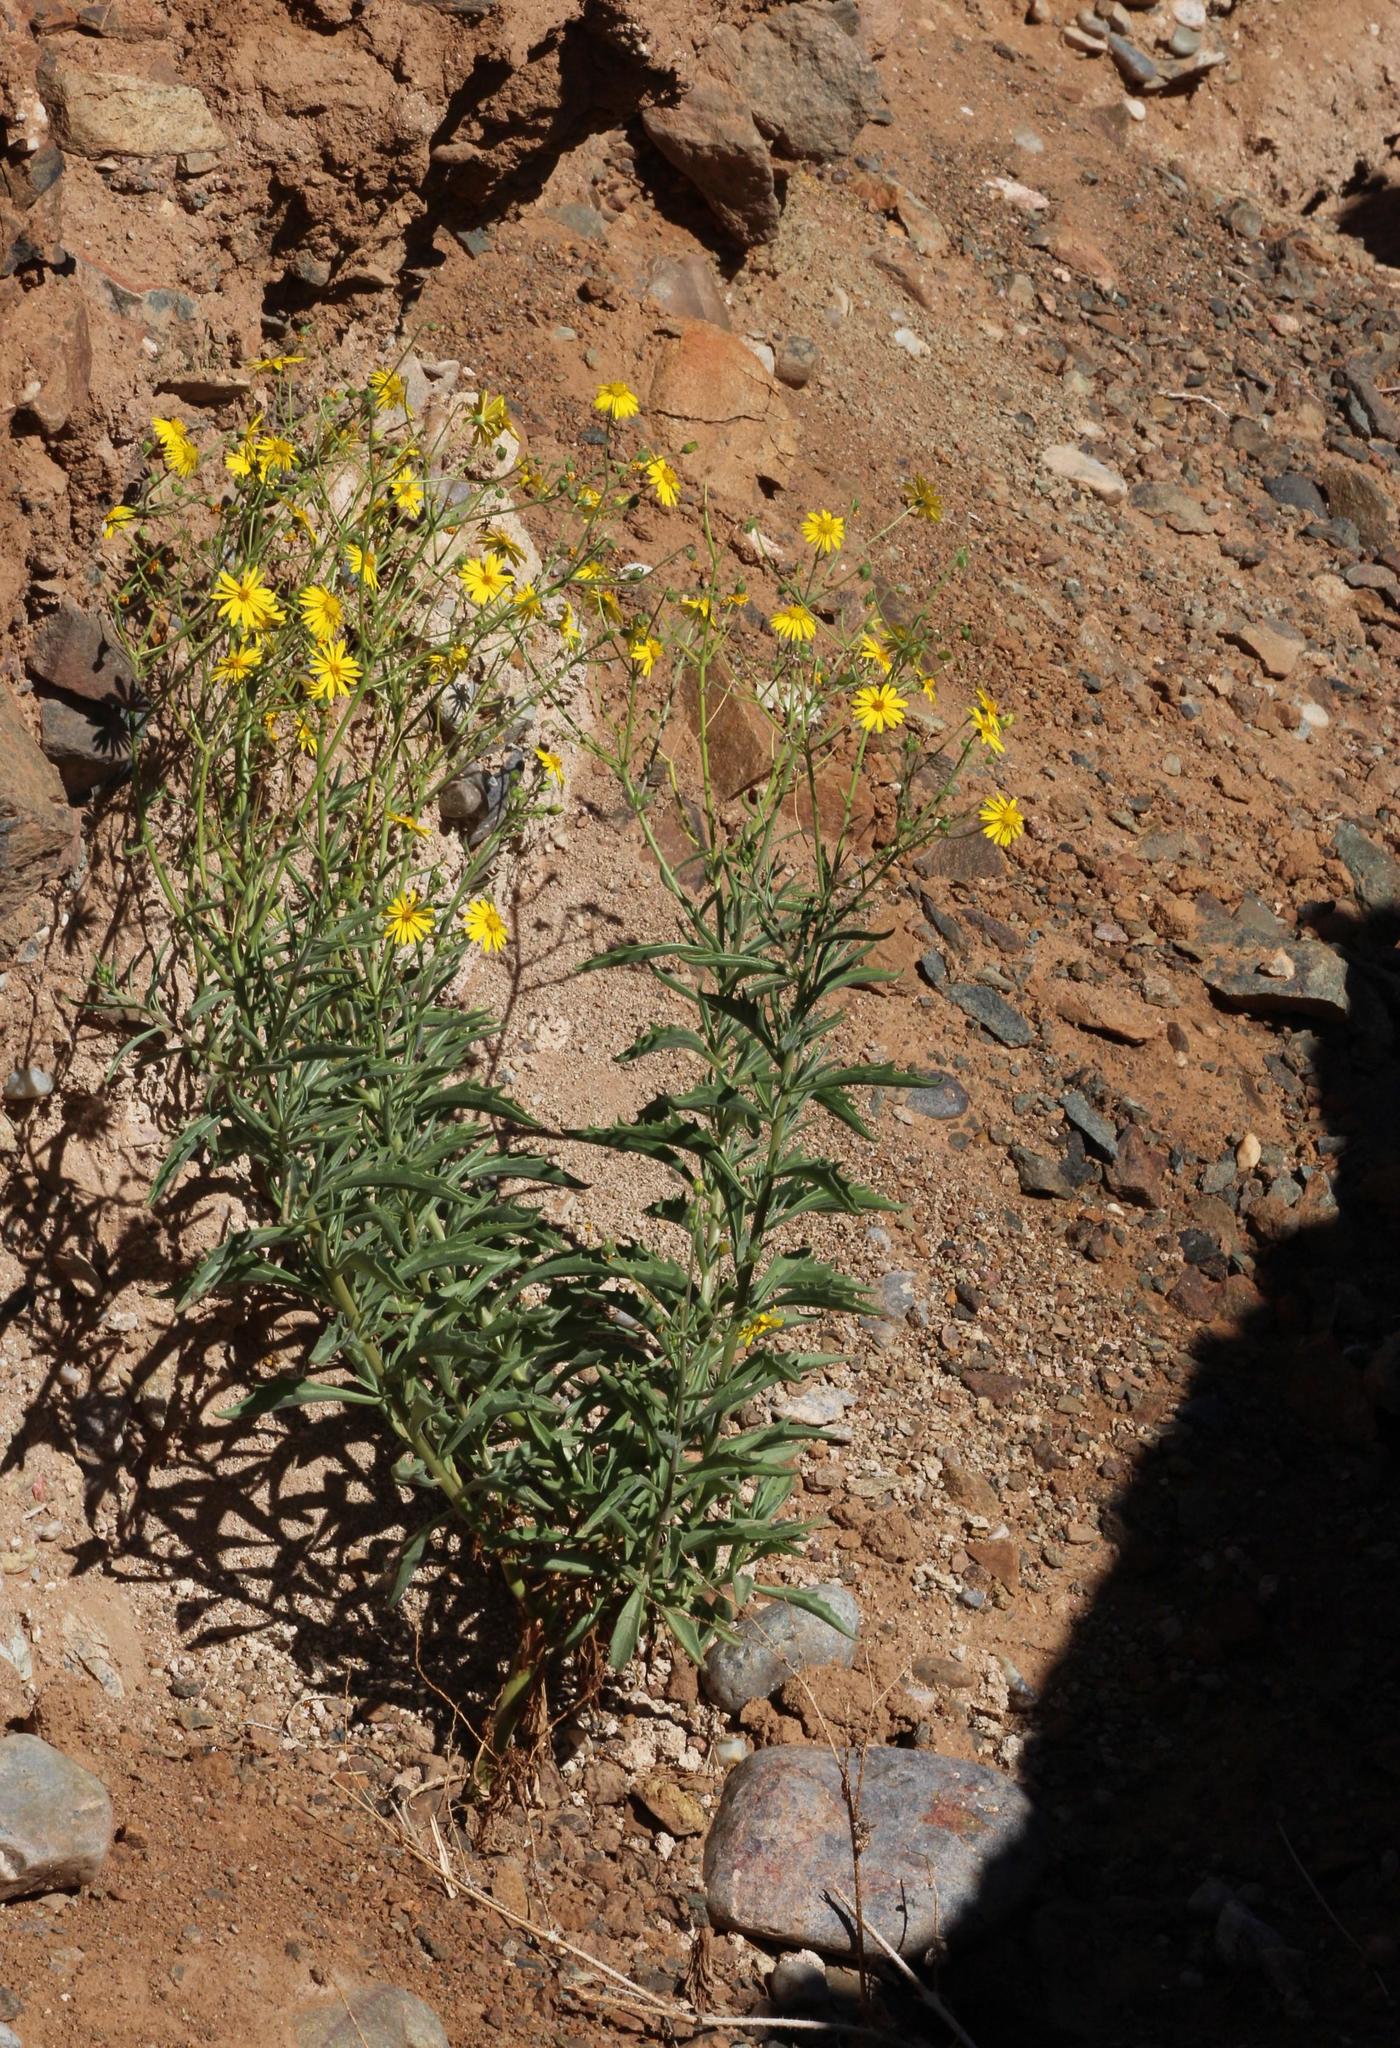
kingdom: Plantae
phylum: Tracheophyta
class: Magnoliopsida
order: Asterales
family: Asteraceae
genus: Osteospermum
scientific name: Osteospermum microcarpum
